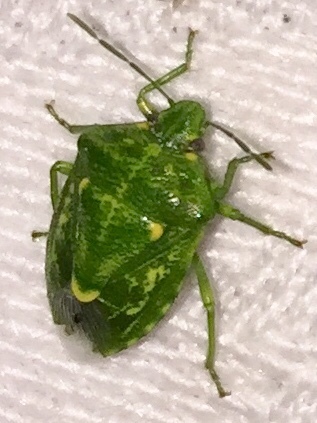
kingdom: Animalia
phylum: Arthropoda
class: Insecta
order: Hemiptera
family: Pentatomidae
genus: Banasa
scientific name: Banasa euchlora
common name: Cedar berry bug
